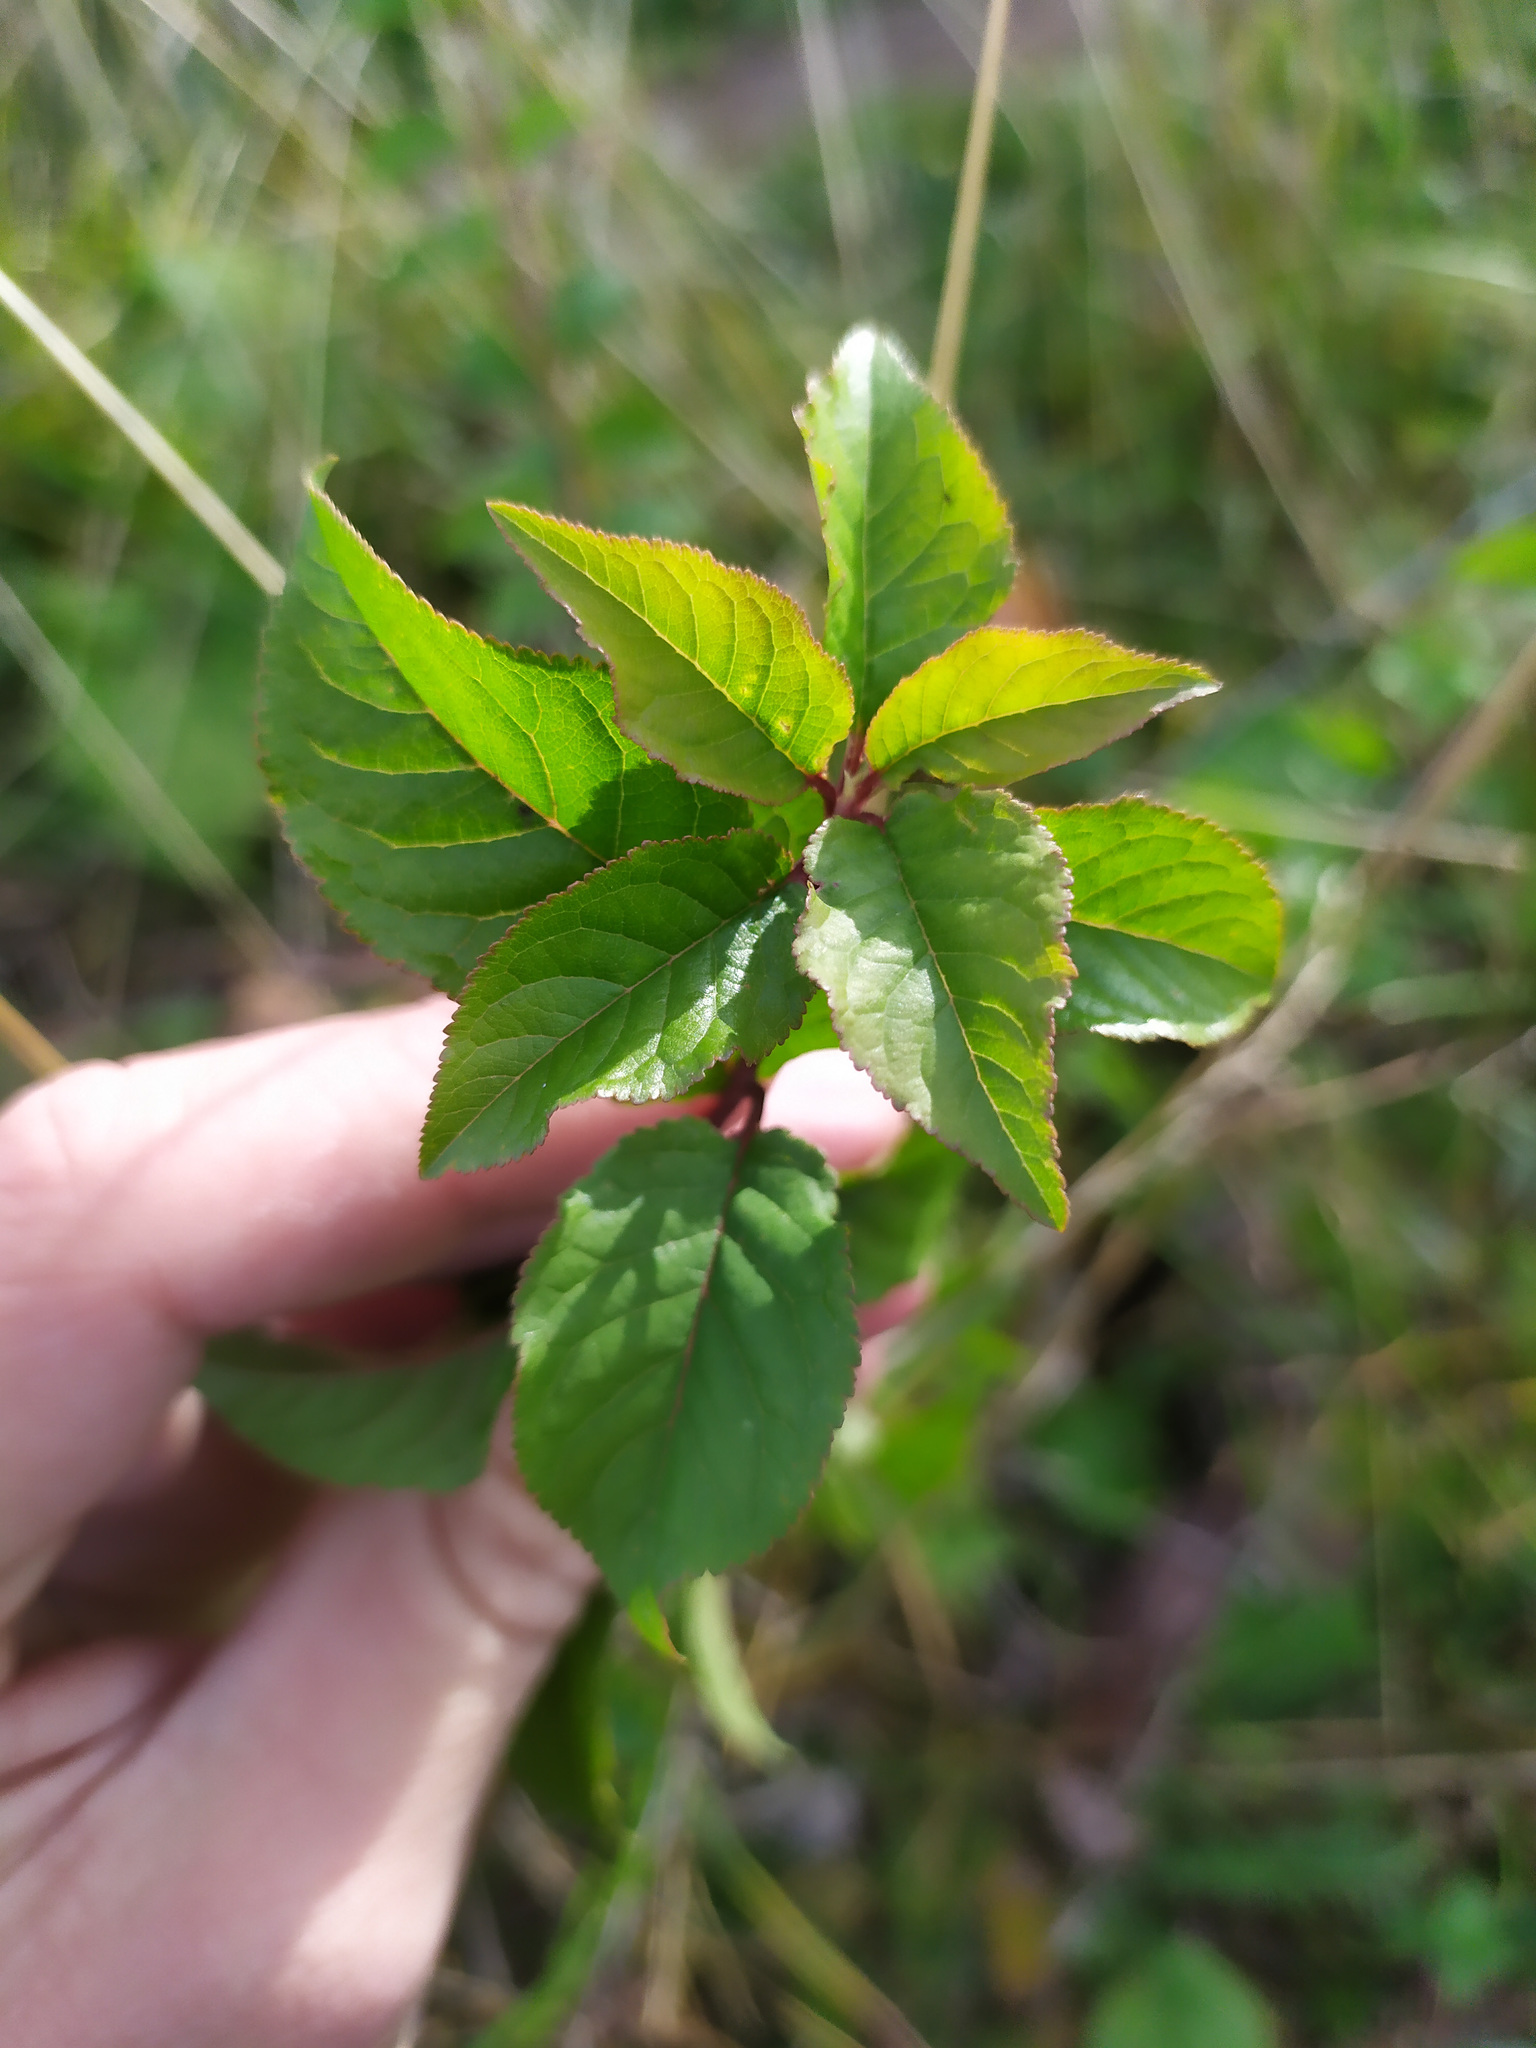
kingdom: Plantae
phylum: Tracheophyta
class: Magnoliopsida
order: Rosales
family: Rosaceae
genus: Prunus
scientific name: Prunus padus
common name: Bird cherry
